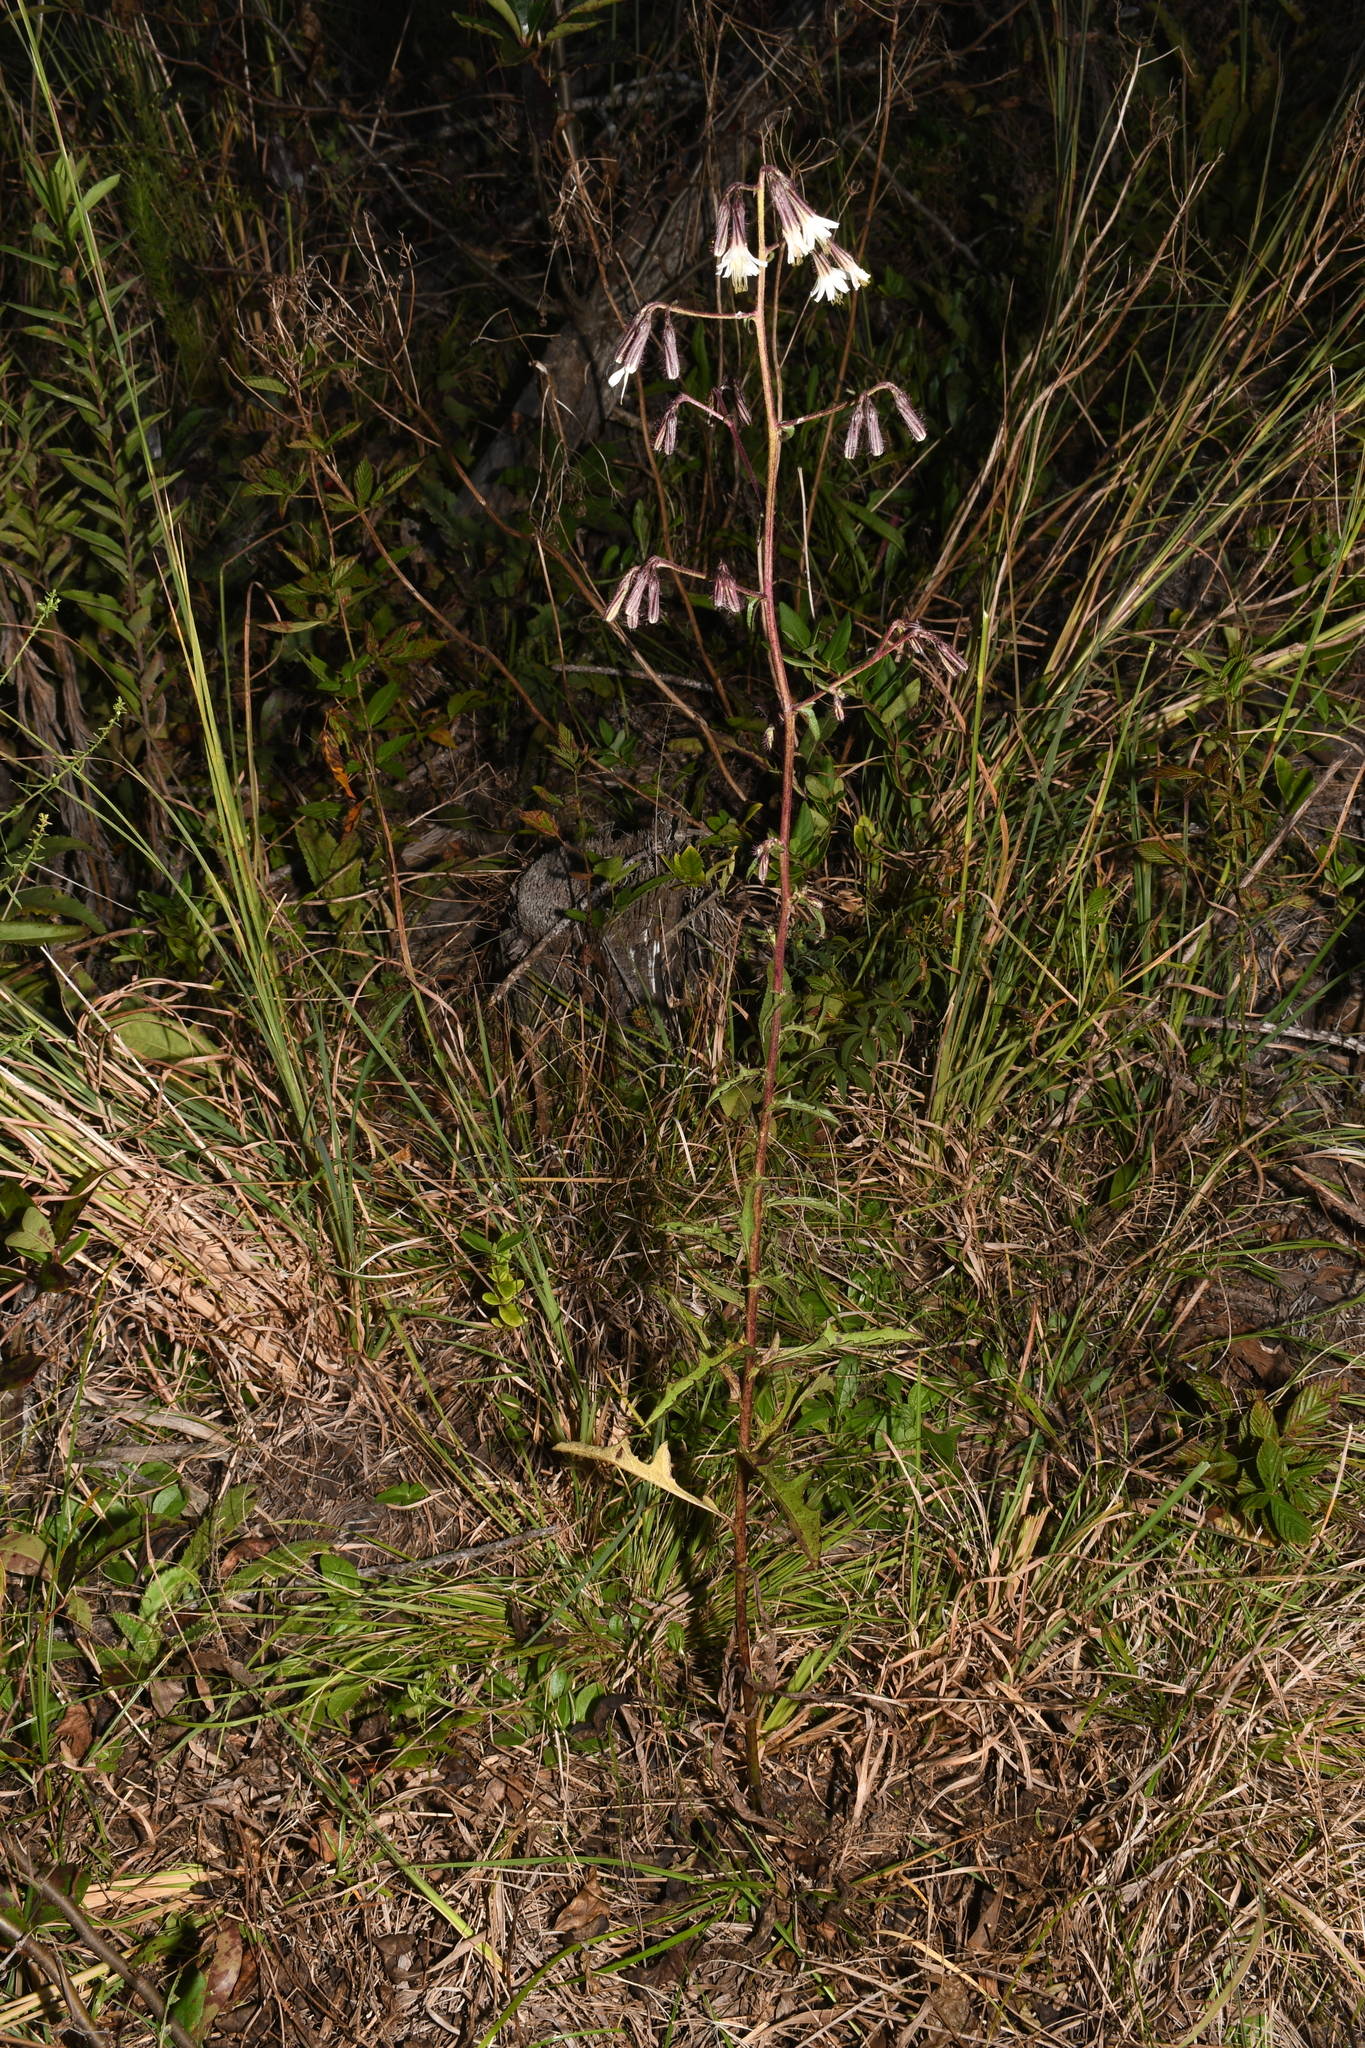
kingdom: Plantae
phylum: Tracheophyta
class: Magnoliopsida
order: Asterales
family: Asteraceae
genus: Nabalus
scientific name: Nabalus barbata
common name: Barbed rattlesnakeroot
